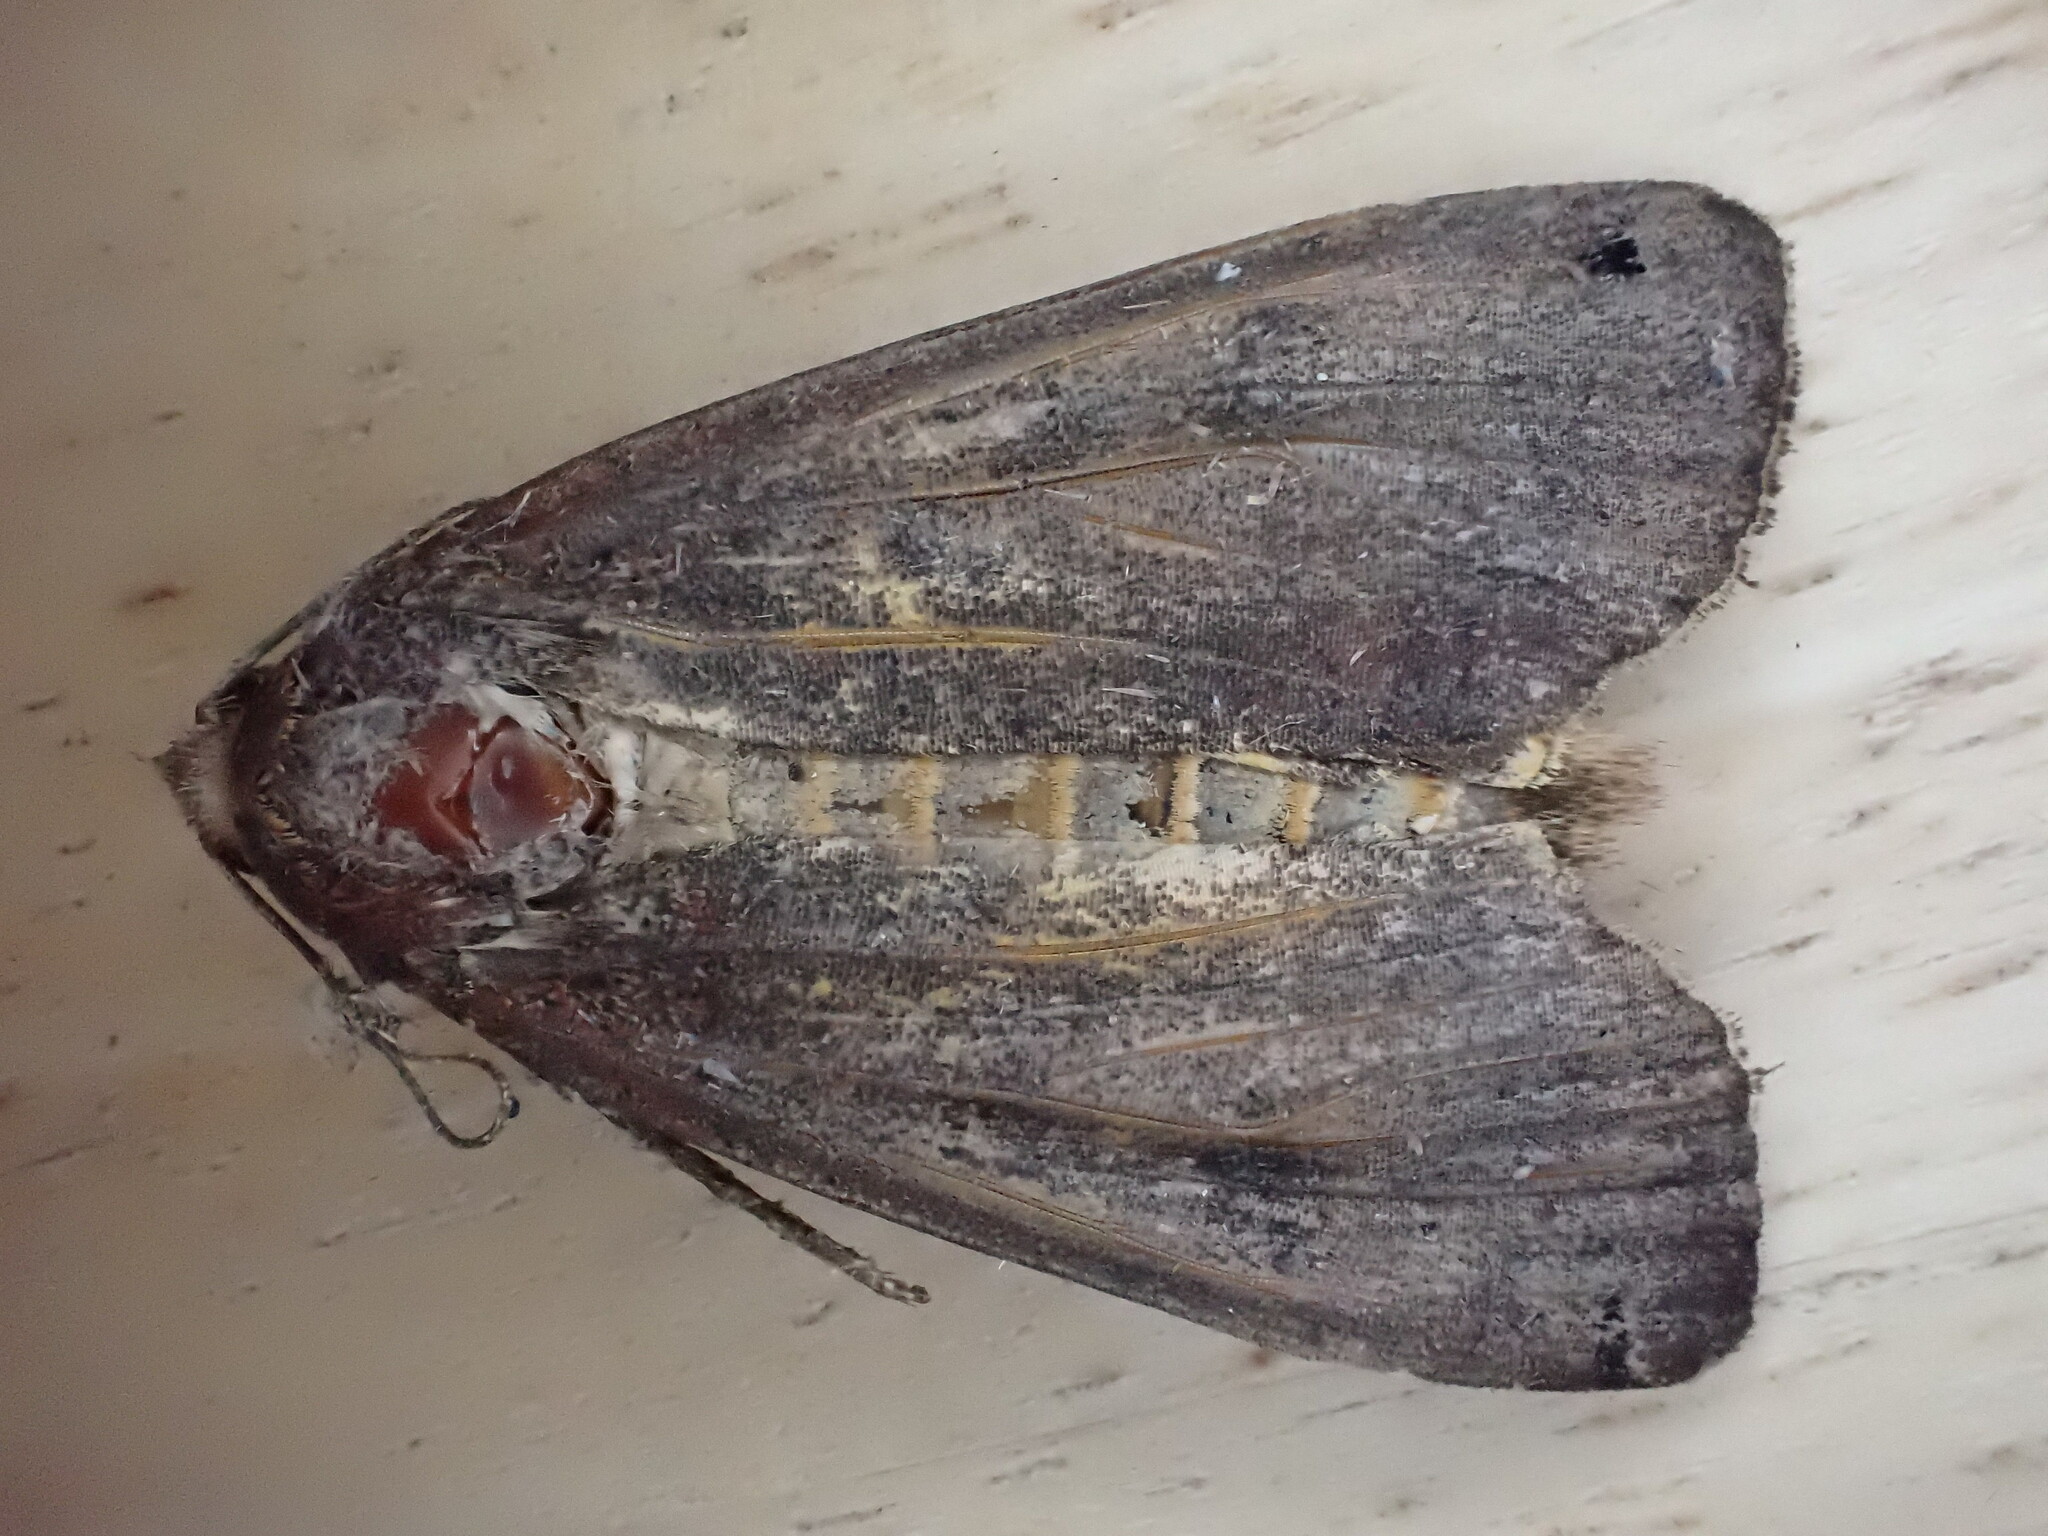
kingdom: Animalia
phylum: Arthropoda
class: Insecta
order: Lepidoptera
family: Noctuidae
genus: Noctua
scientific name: Noctua pronuba
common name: Large yellow underwing
